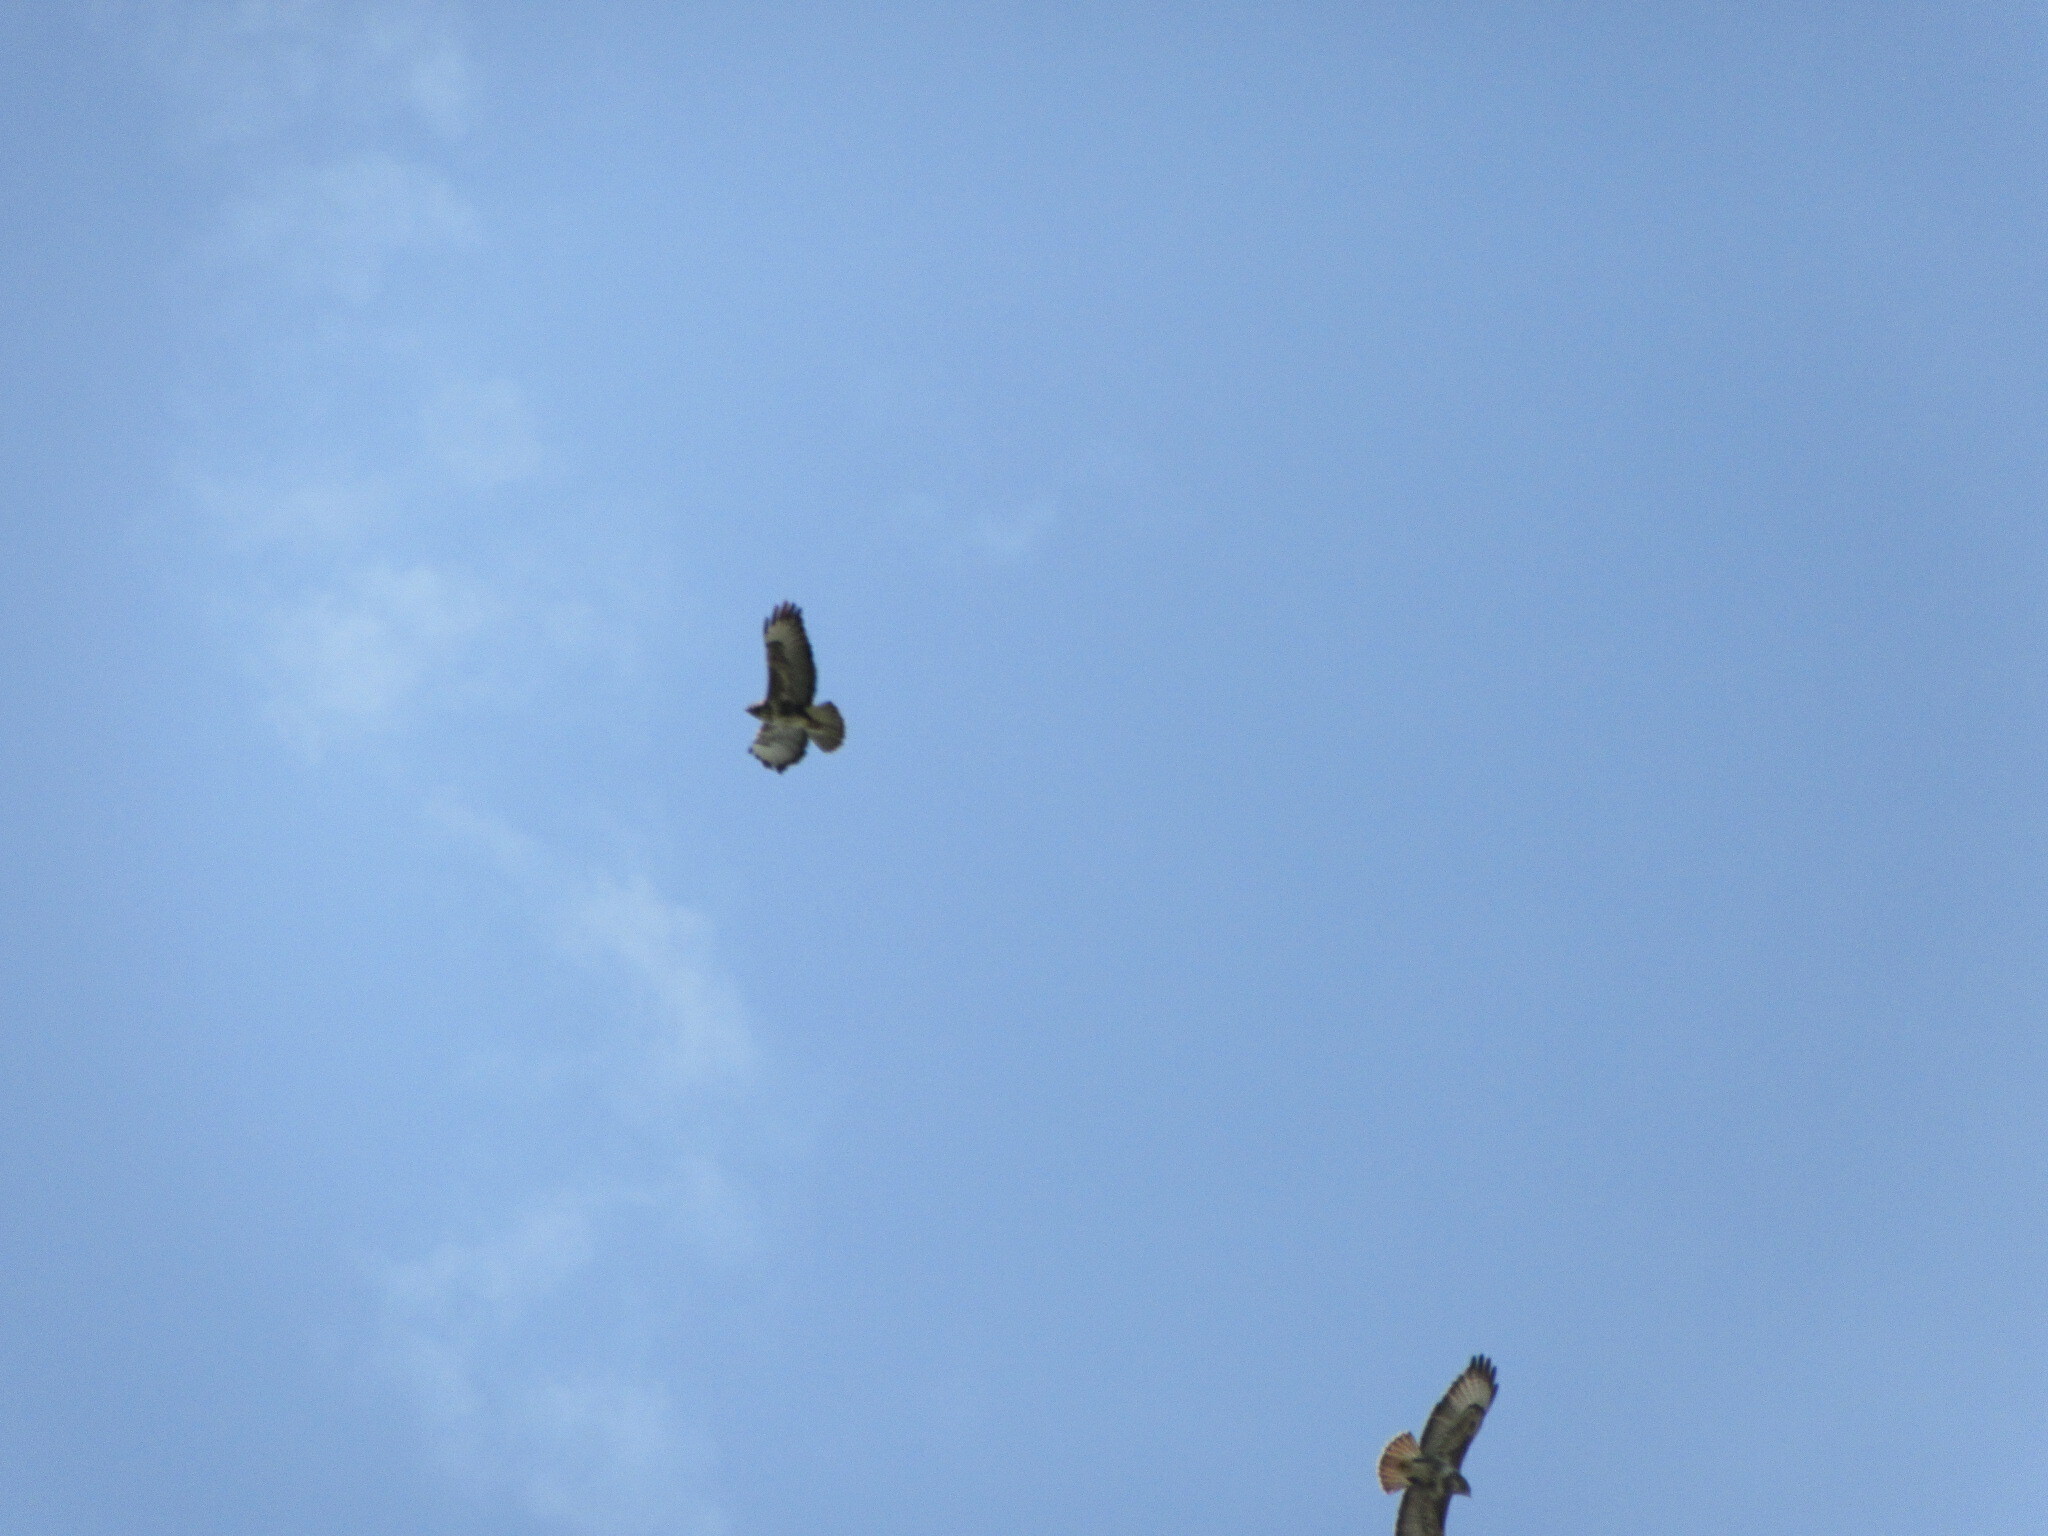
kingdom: Animalia
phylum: Chordata
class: Aves
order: Accipitriformes
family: Accipitridae
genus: Buteo
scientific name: Buteo buteo
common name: Common buzzard
